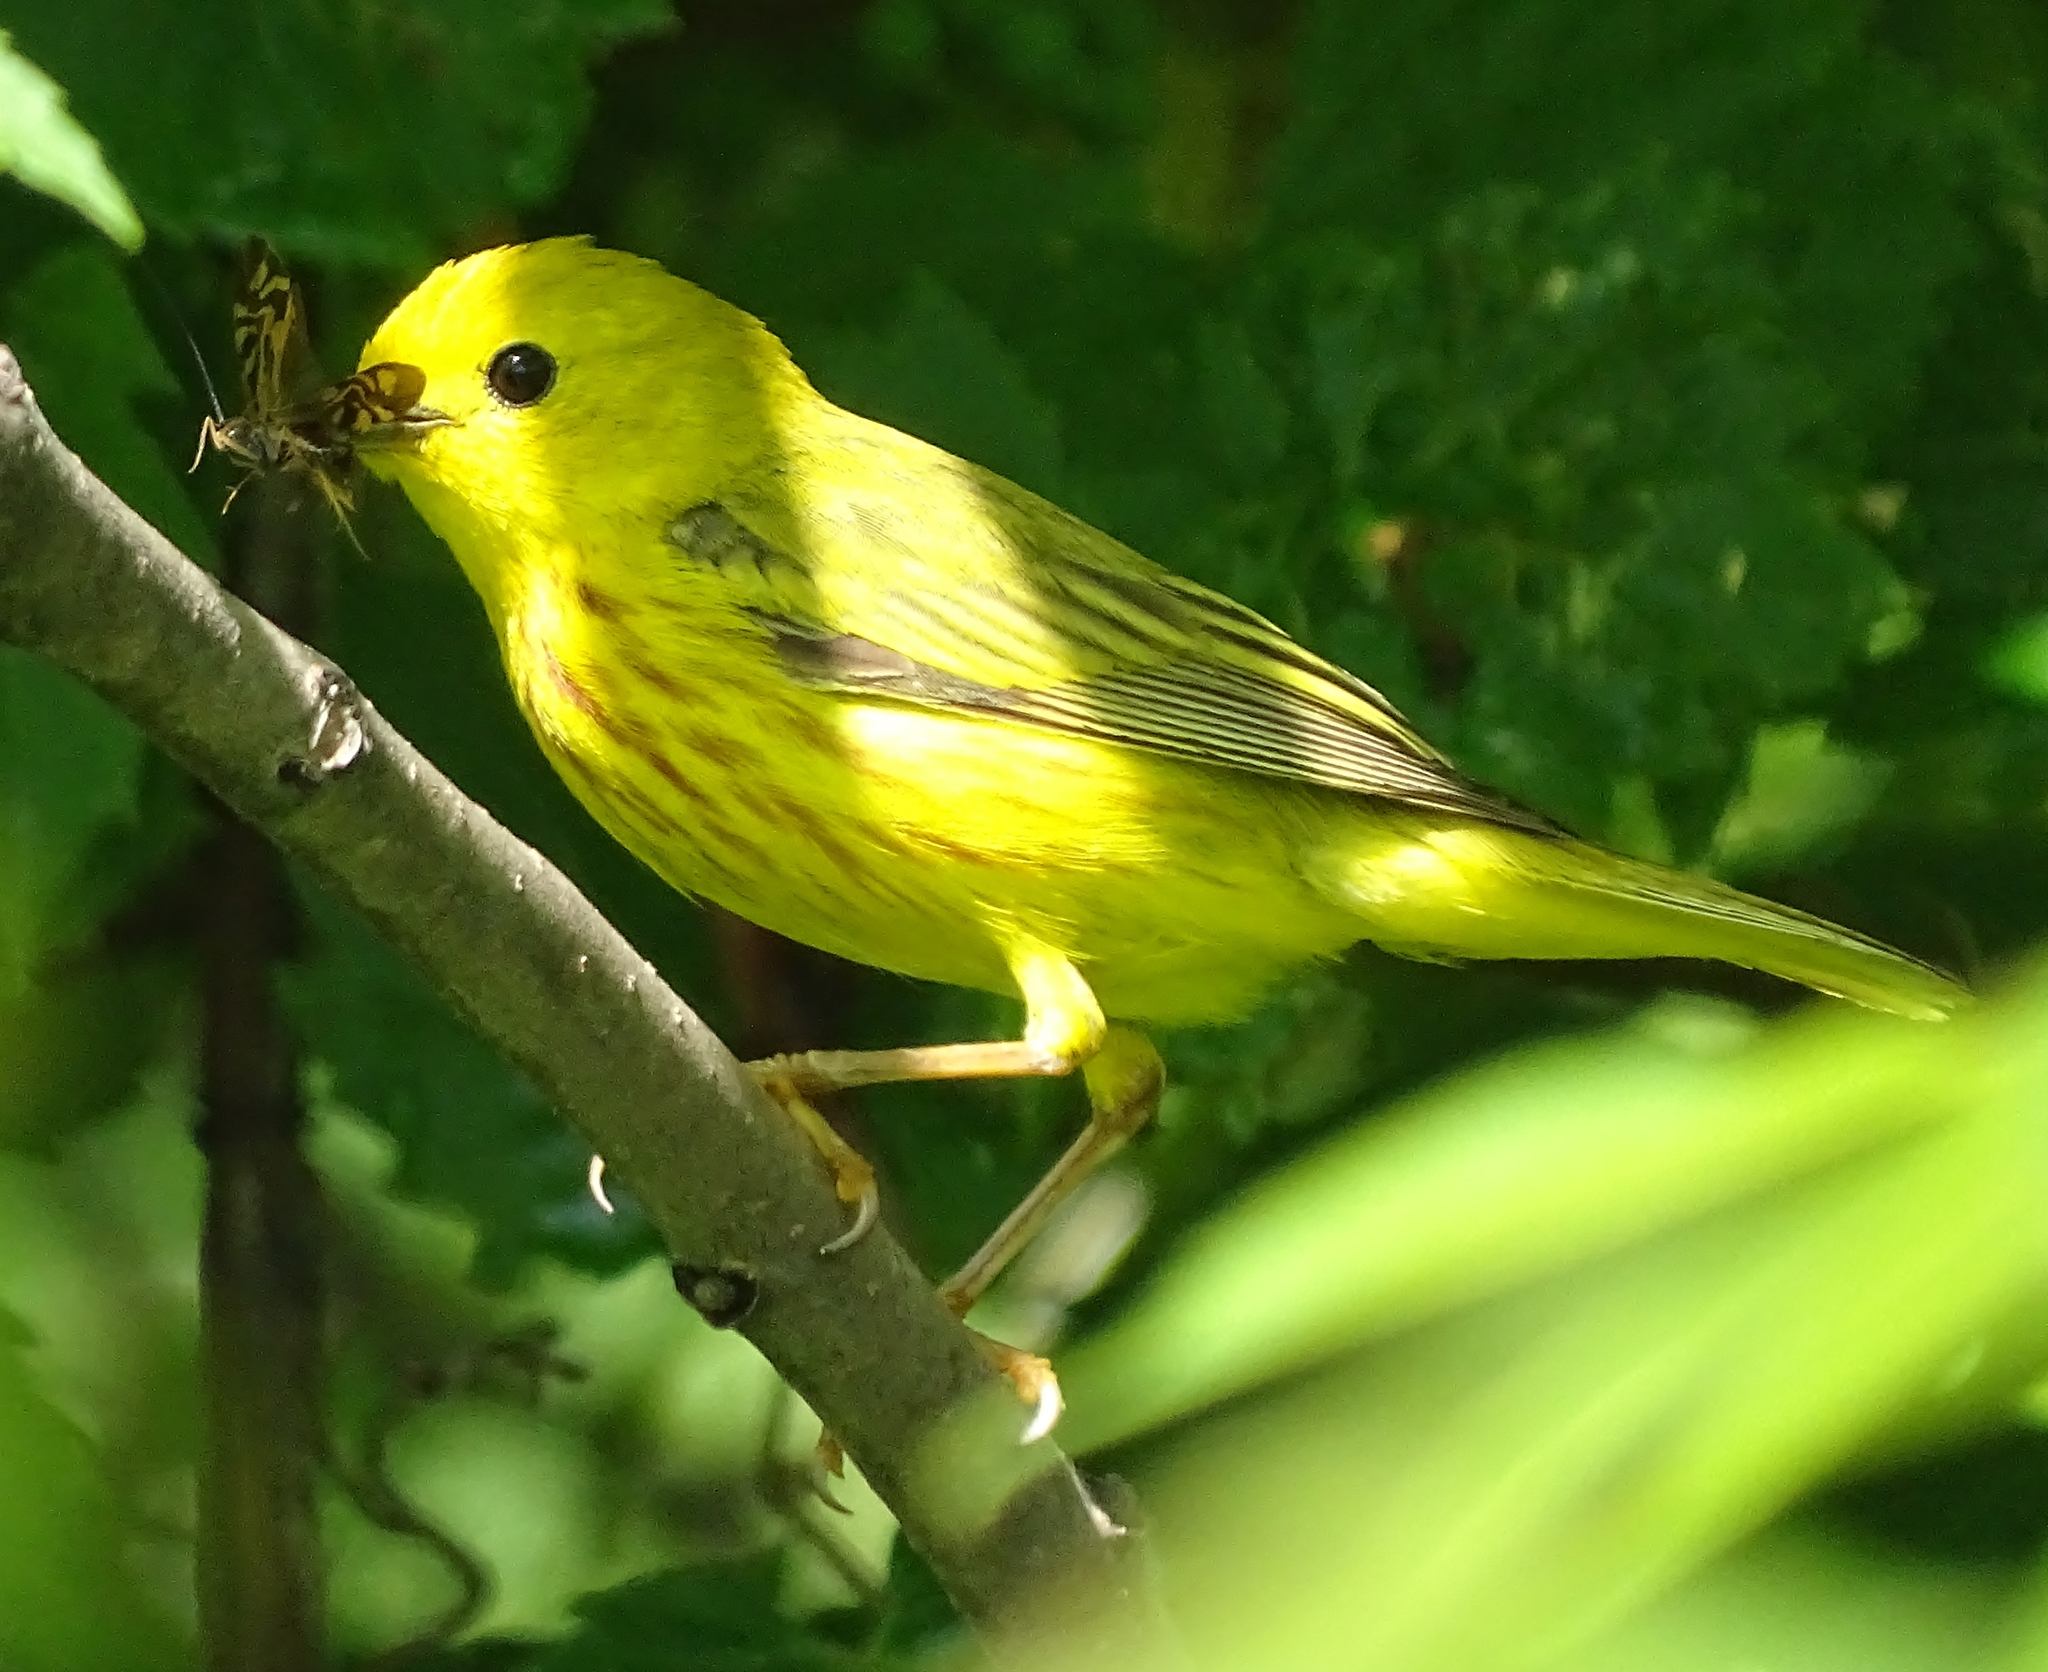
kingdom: Animalia
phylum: Chordata
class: Aves
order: Passeriformes
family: Parulidae
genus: Setophaga
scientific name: Setophaga petechia
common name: Yellow warbler
